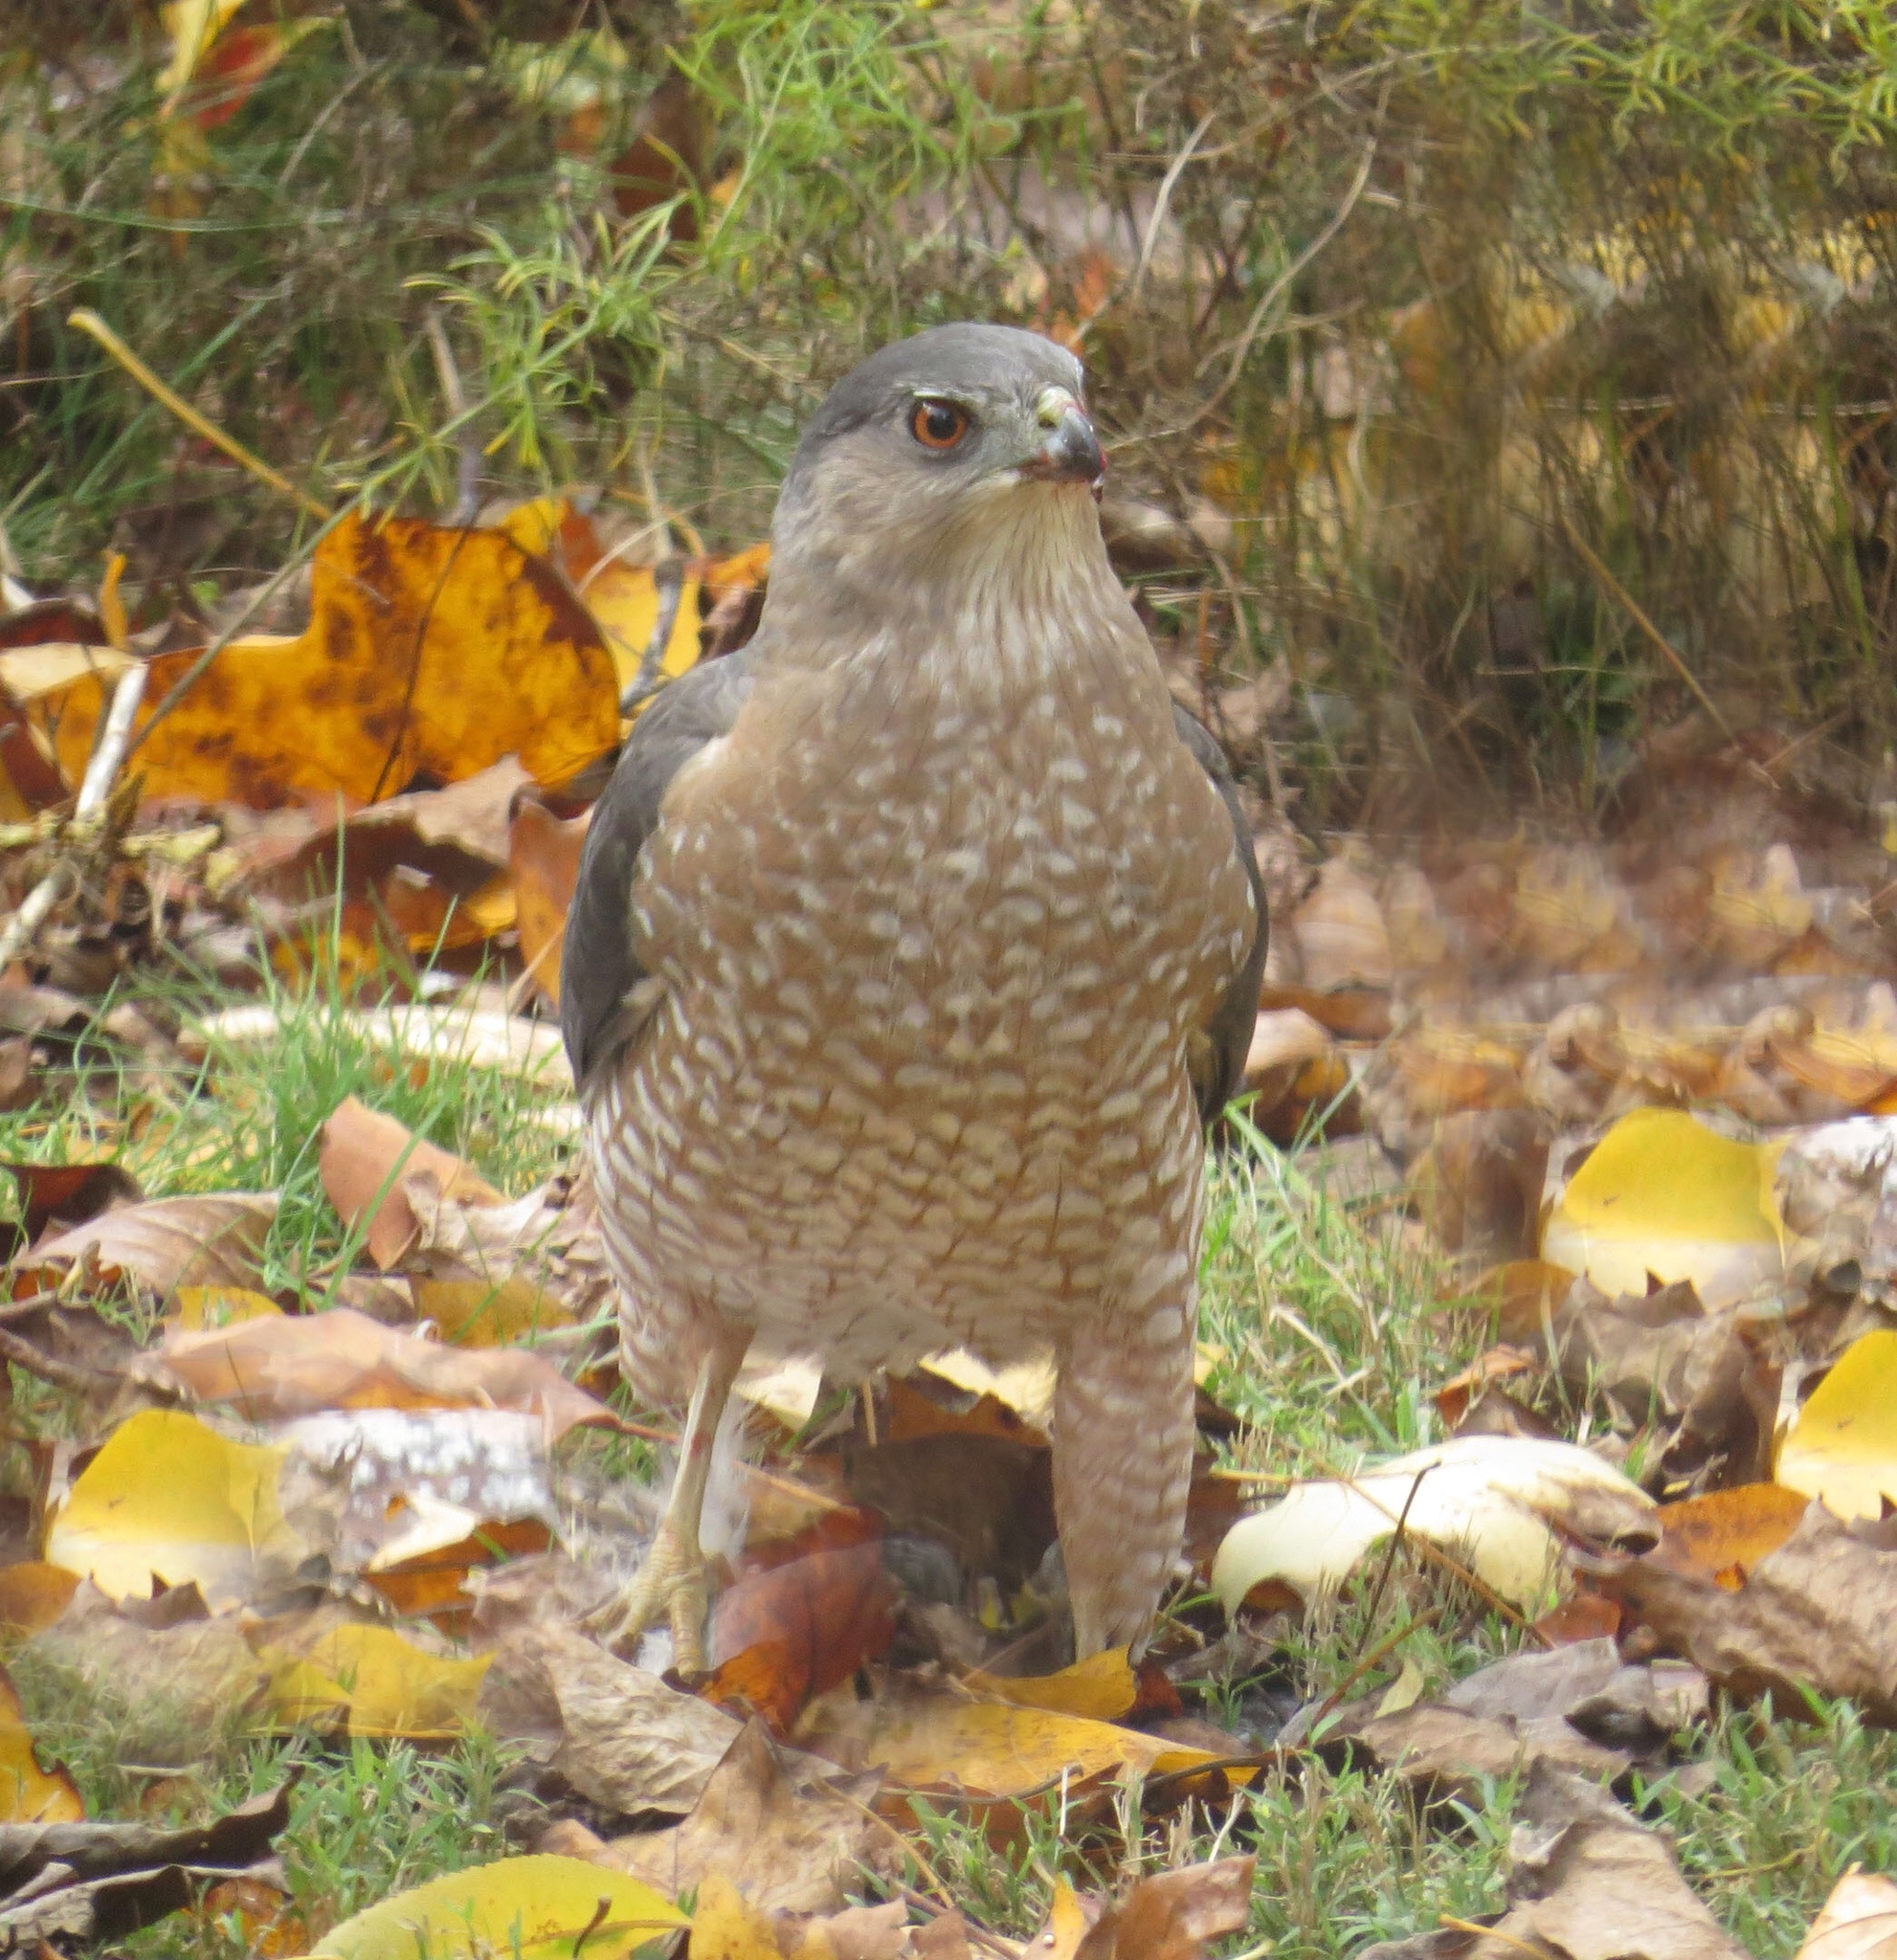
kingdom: Animalia
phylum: Chordata
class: Aves
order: Accipitriformes
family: Accipitridae
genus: Accipiter
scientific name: Accipiter cooperii
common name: Cooper's hawk
